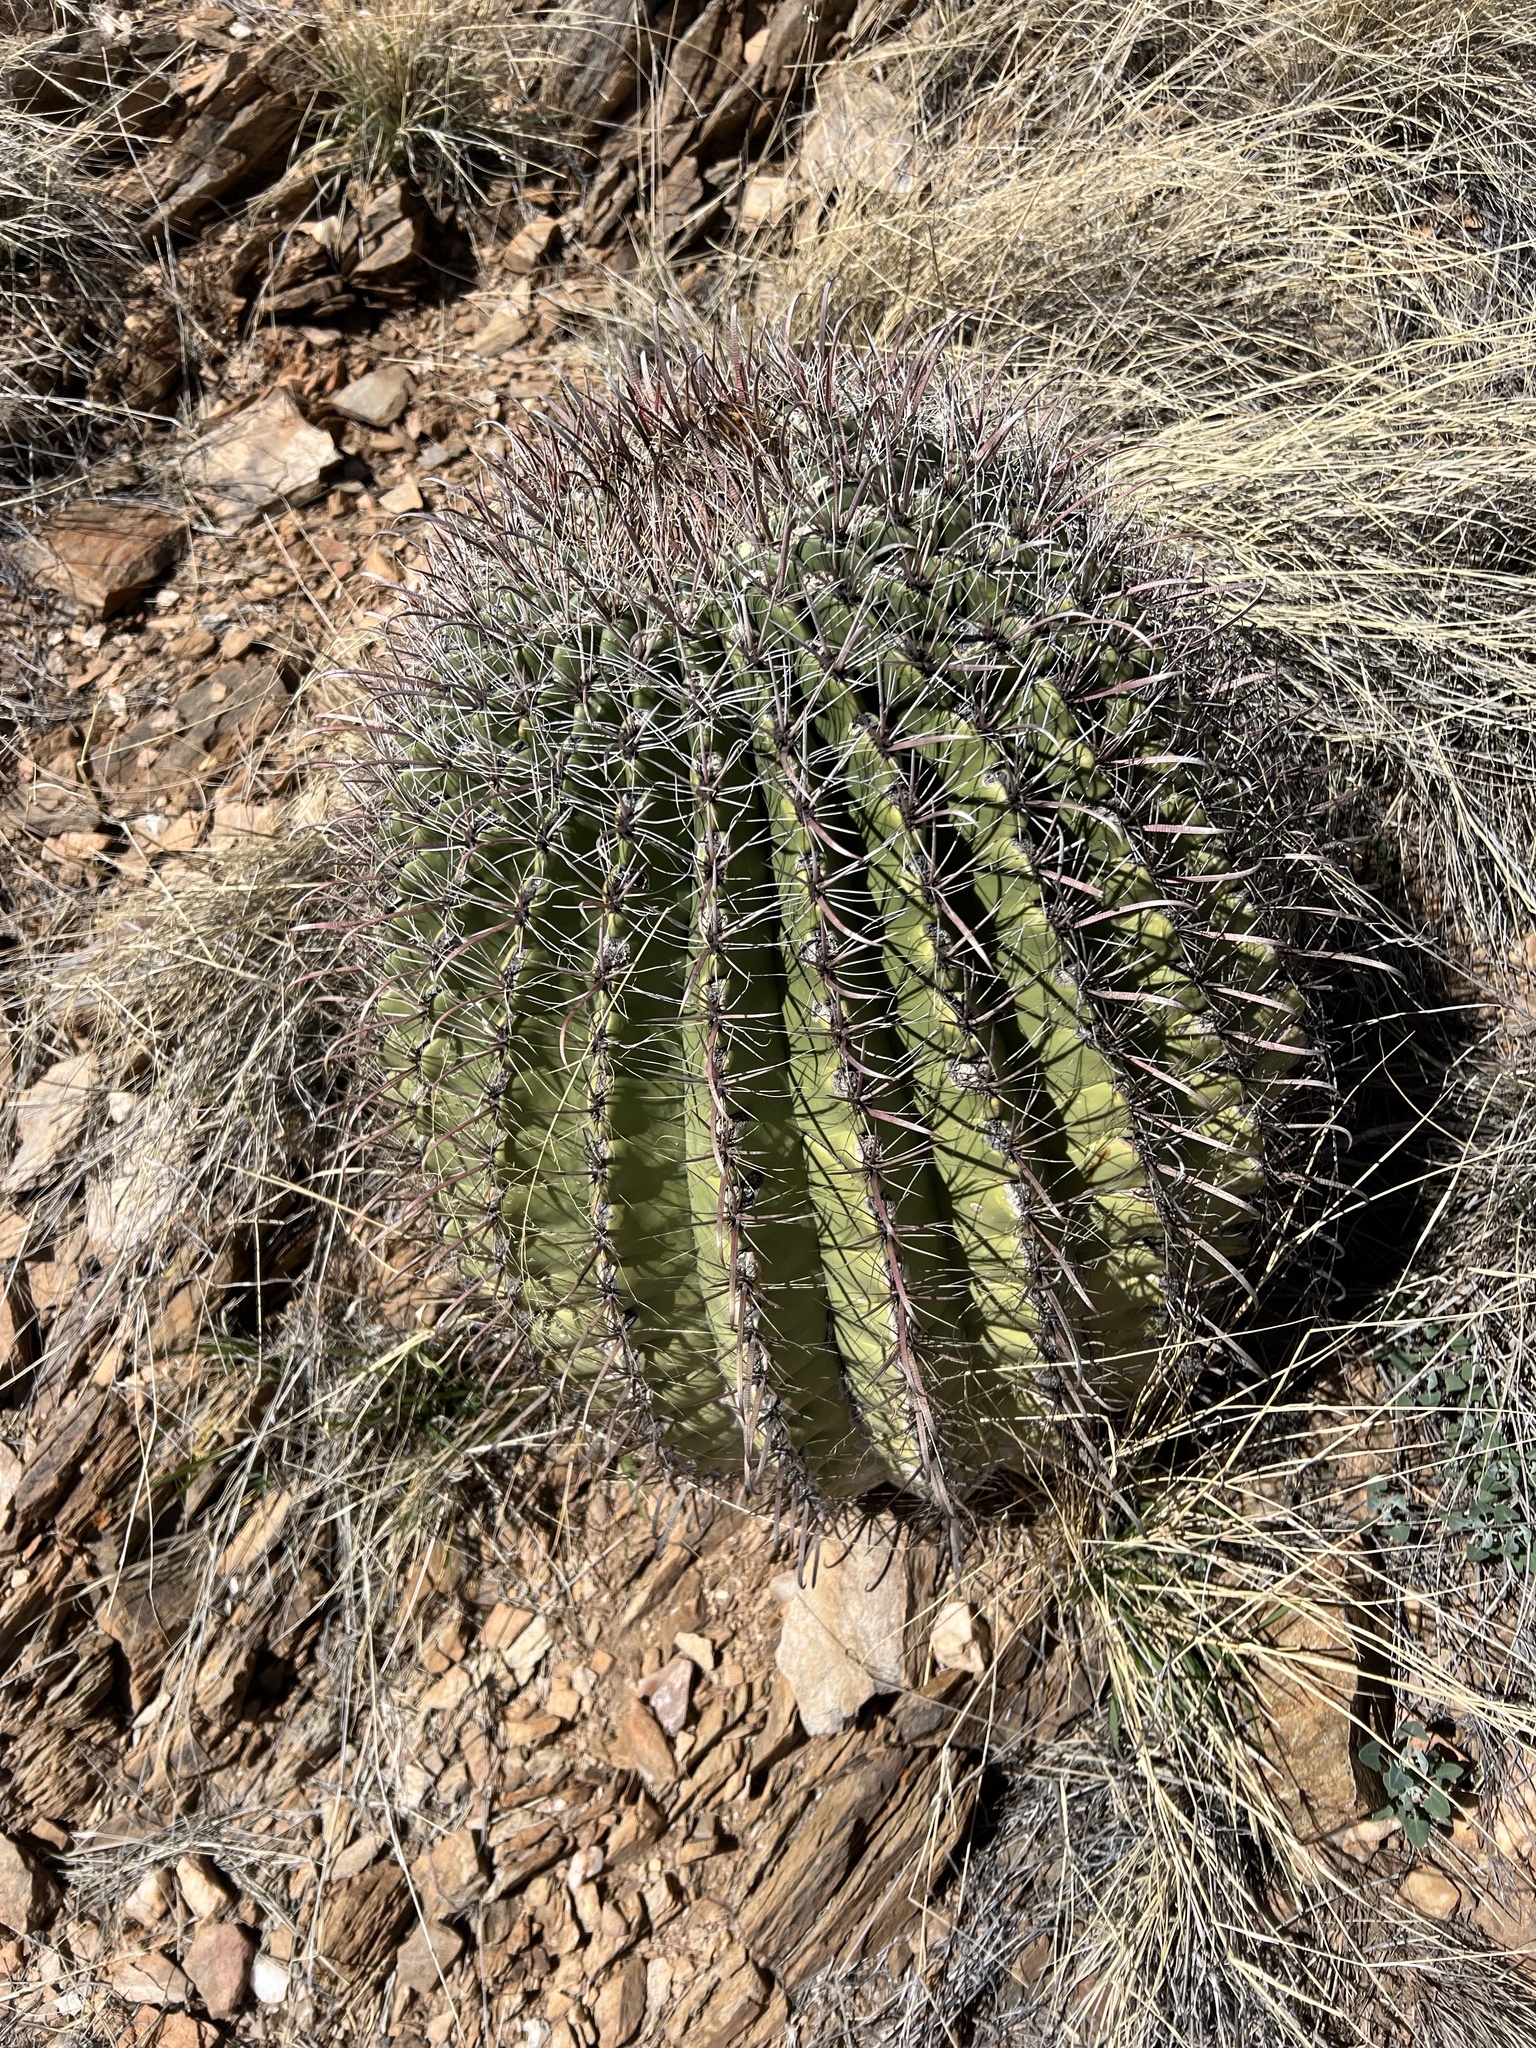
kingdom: Plantae
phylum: Tracheophyta
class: Magnoliopsida
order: Caryophyllales
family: Cactaceae
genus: Ferocactus
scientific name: Ferocactus wislizeni
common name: Candy barrel cactus
